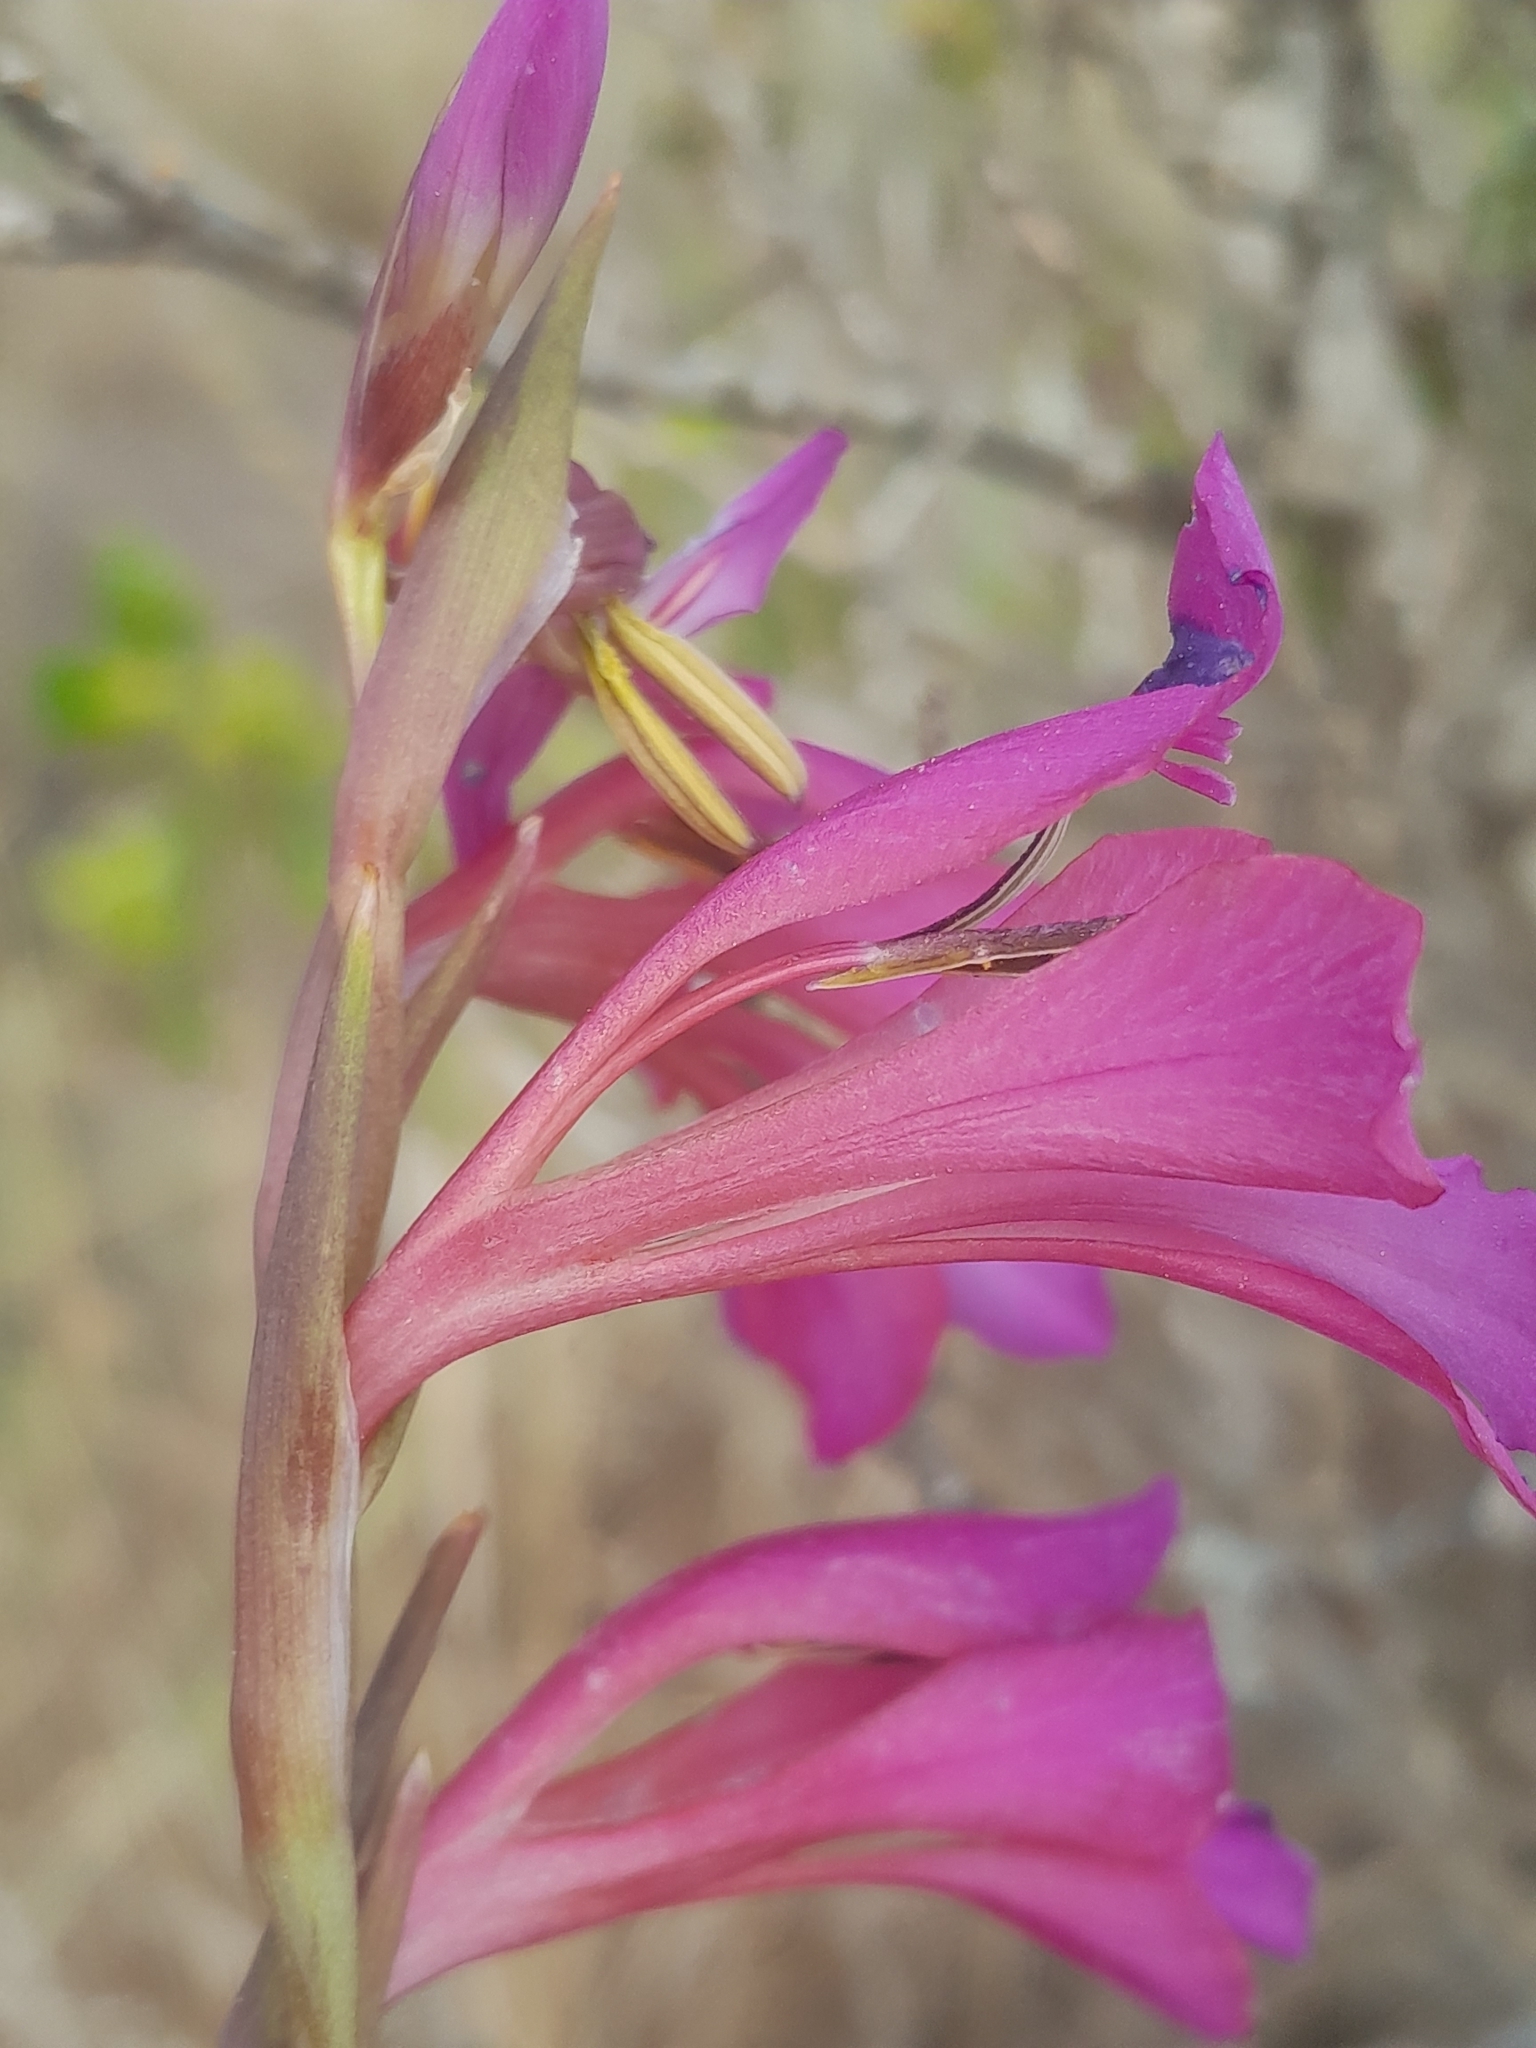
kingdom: Plantae
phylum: Tracheophyta
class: Liliopsida
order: Asparagales
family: Iridaceae
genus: Gladiolus
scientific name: Gladiolus italicus
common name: Field gladiolus
